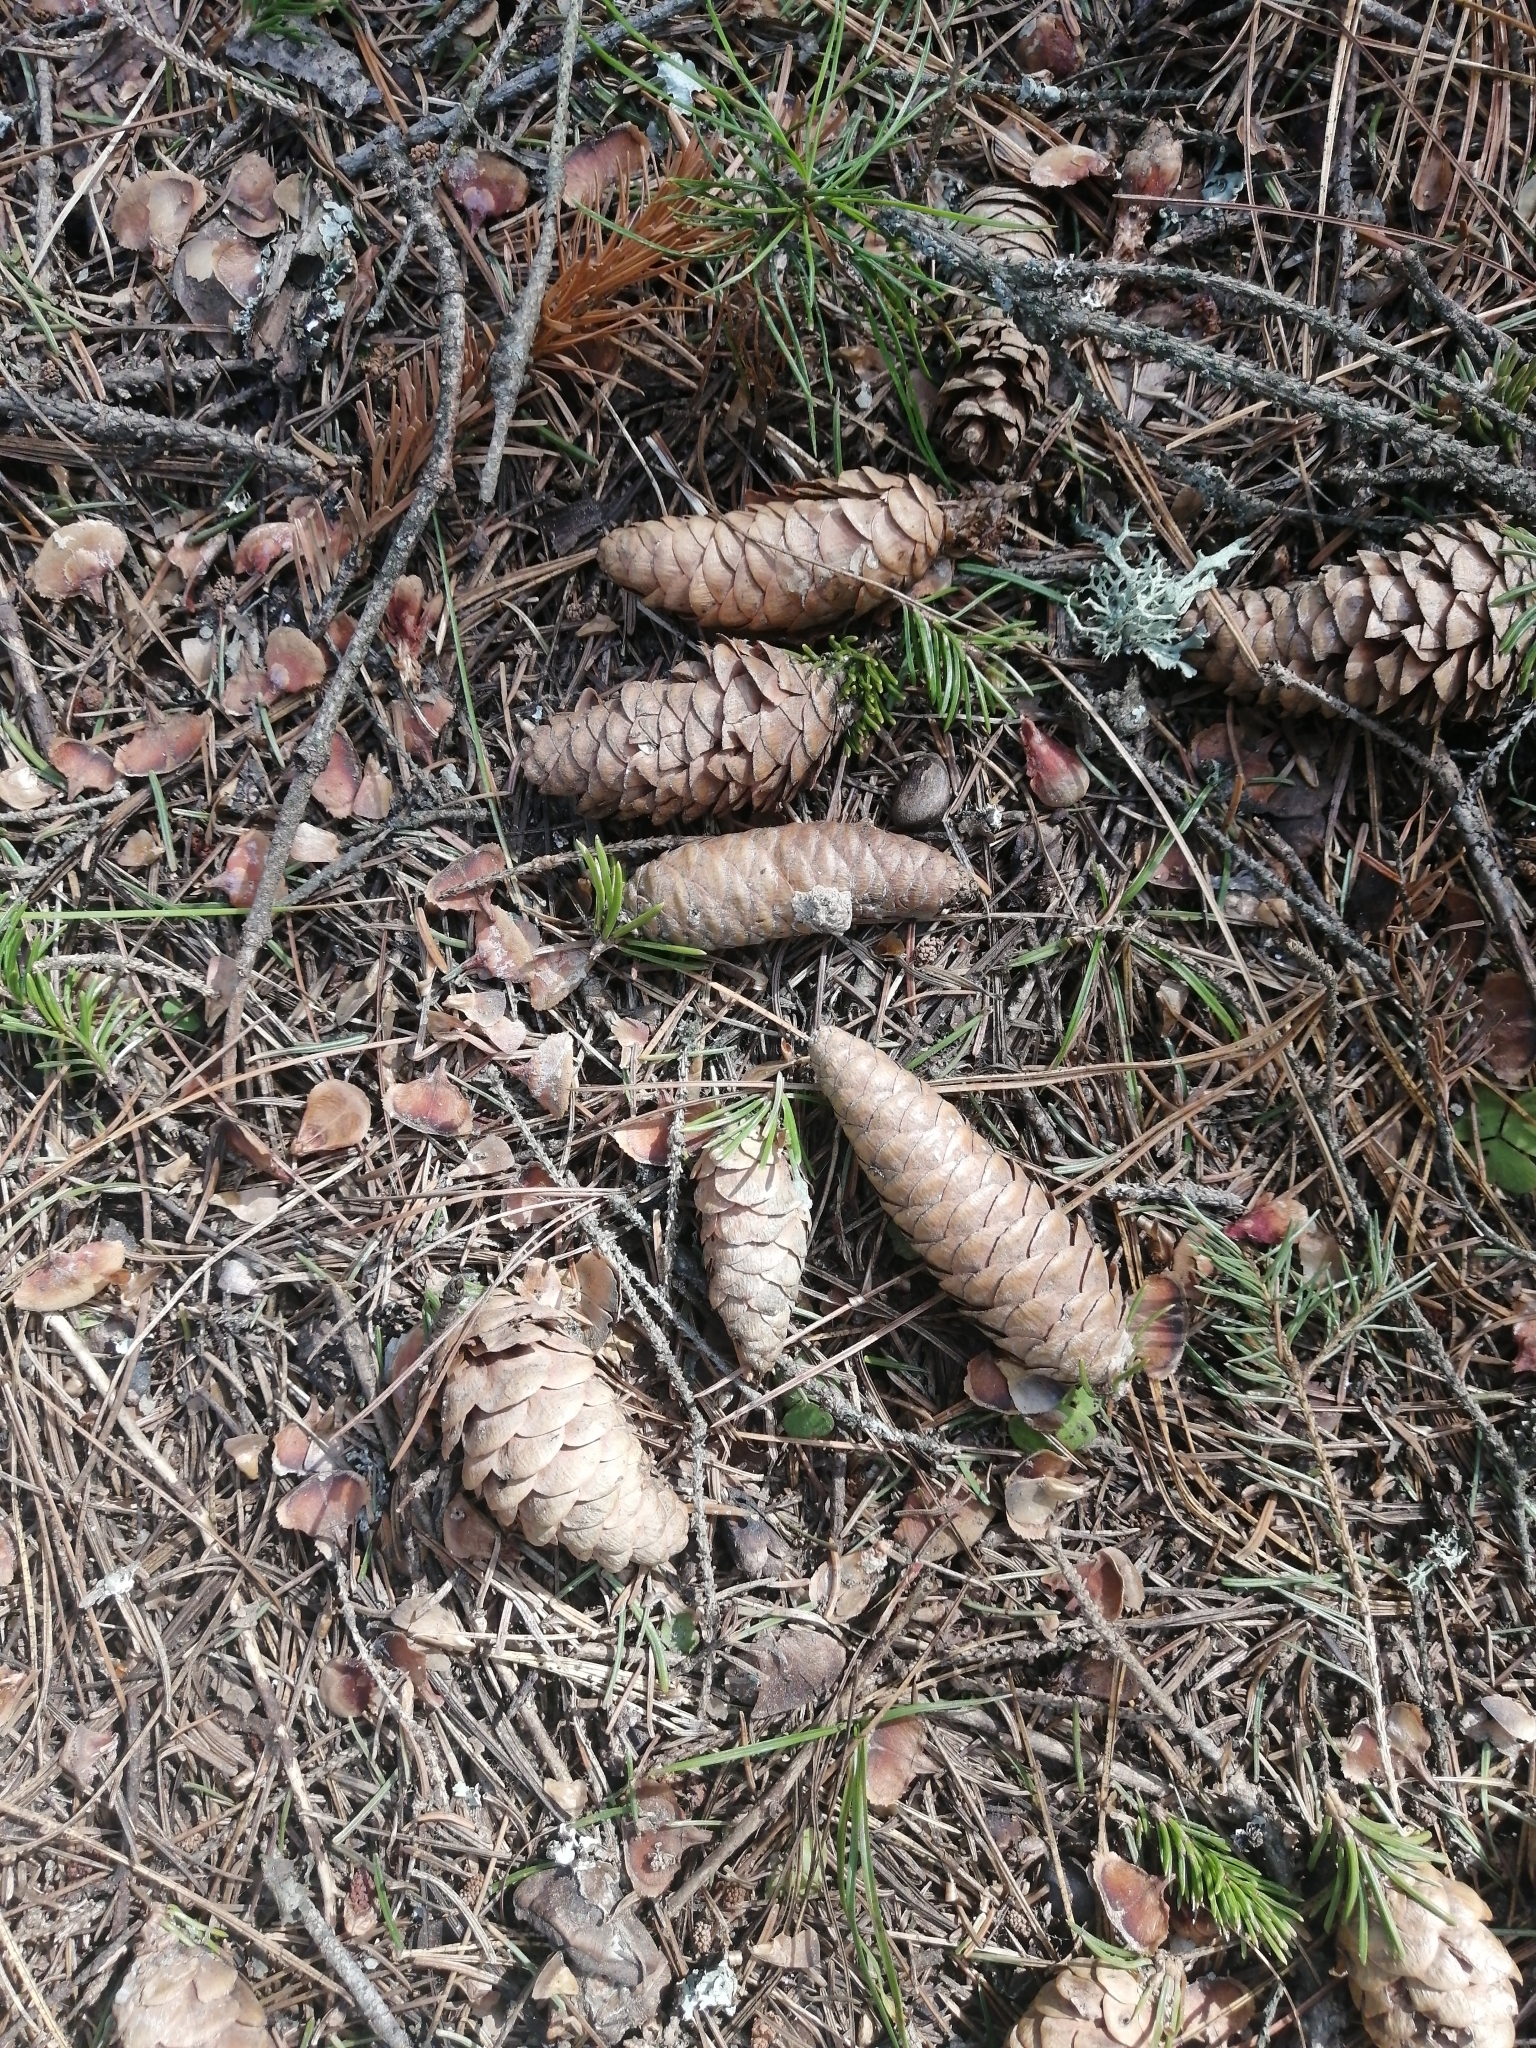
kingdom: Plantae
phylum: Tracheophyta
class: Pinopsida
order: Pinales
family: Pinaceae
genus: Picea
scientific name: Picea obovata
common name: Siberian spruce
